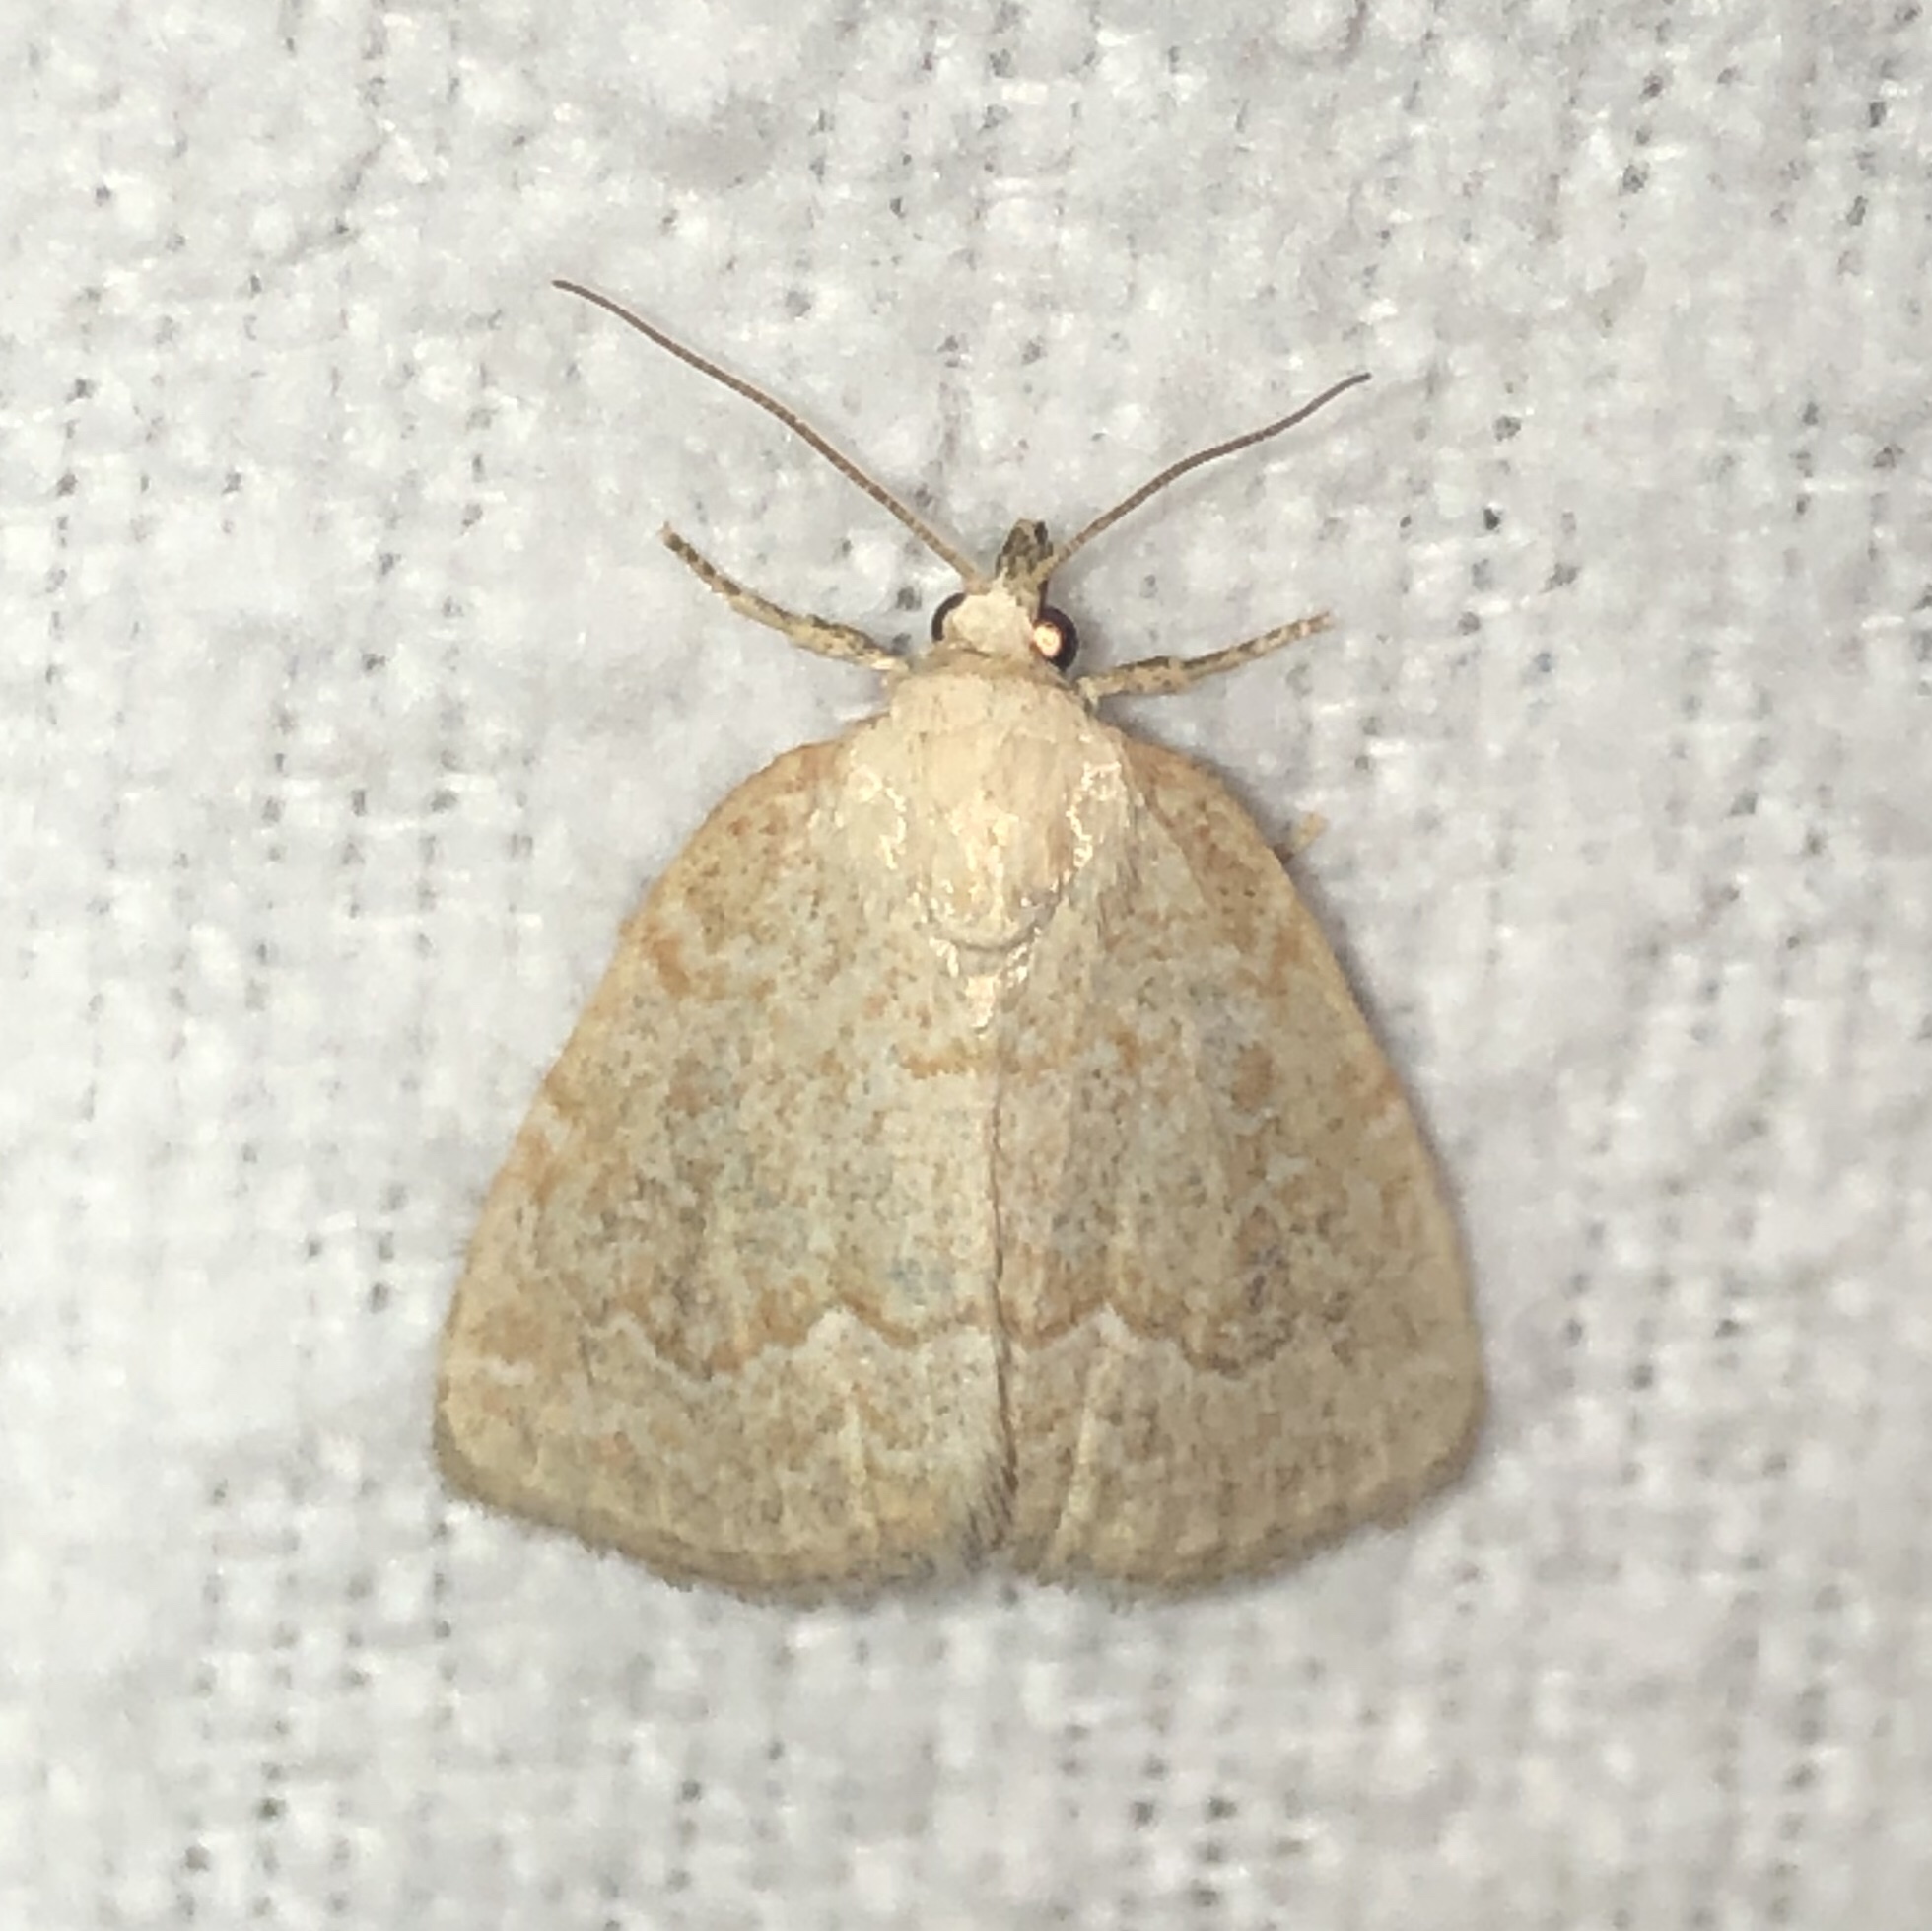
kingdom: Animalia
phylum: Arthropoda
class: Insecta
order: Lepidoptera
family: Noctuidae
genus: Protodeltote
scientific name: Protodeltote albidula
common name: Pale glyph
